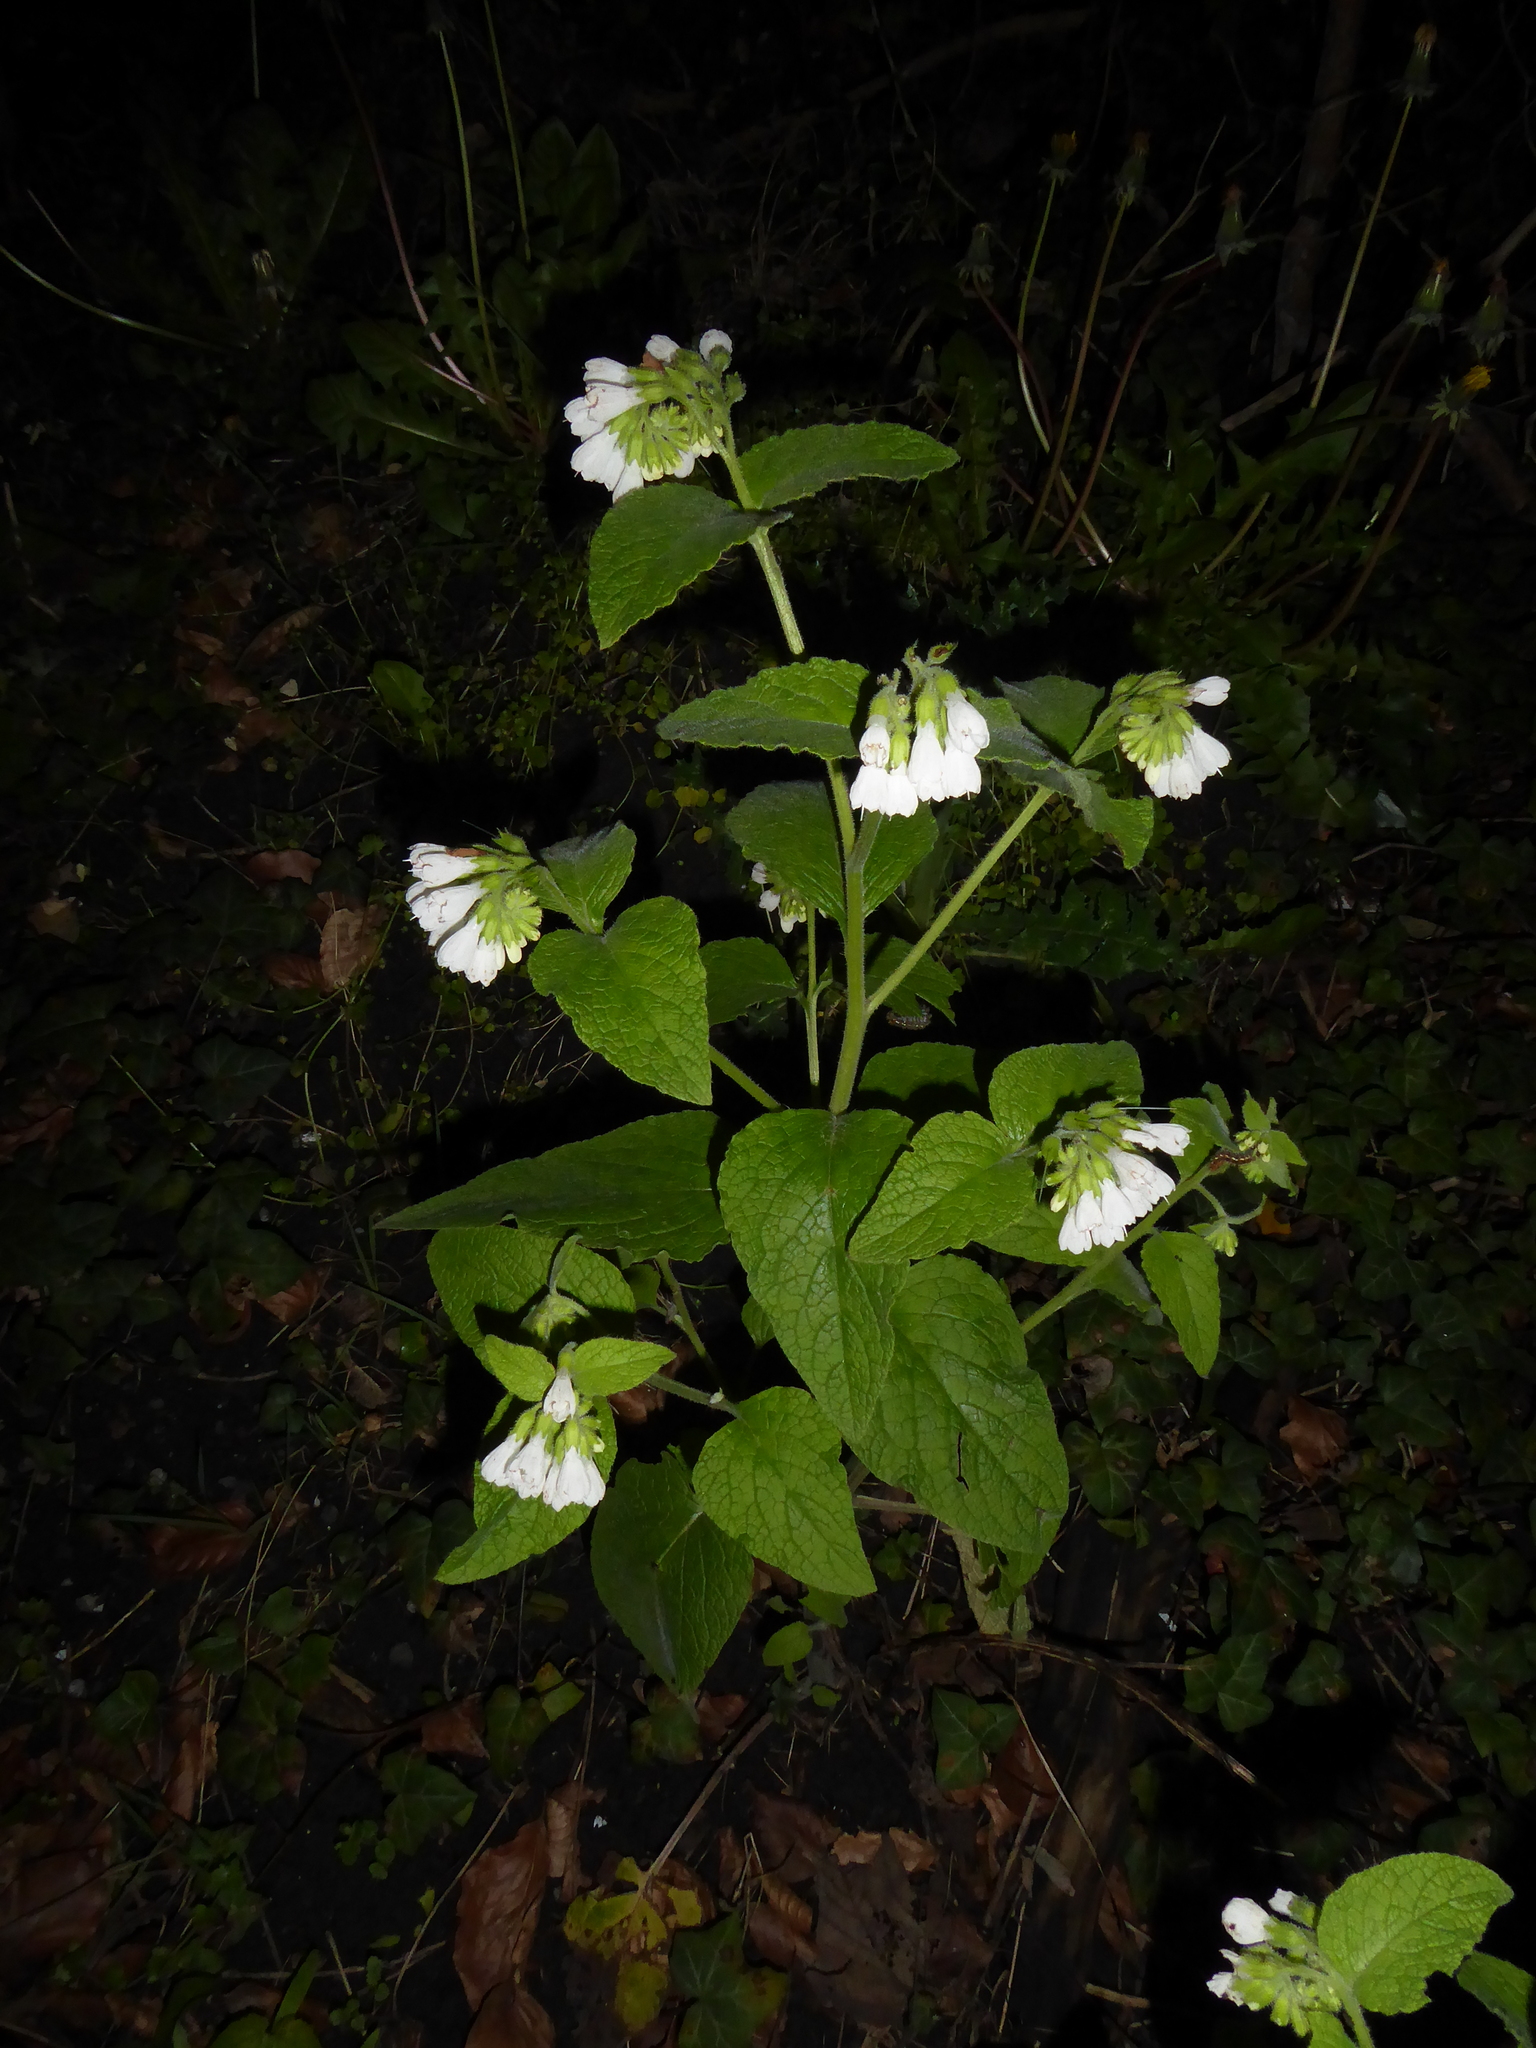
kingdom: Plantae
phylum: Tracheophyta
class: Magnoliopsida
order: Boraginales
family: Boraginaceae
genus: Symphytum
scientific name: Symphytum orientale
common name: White comfrey
